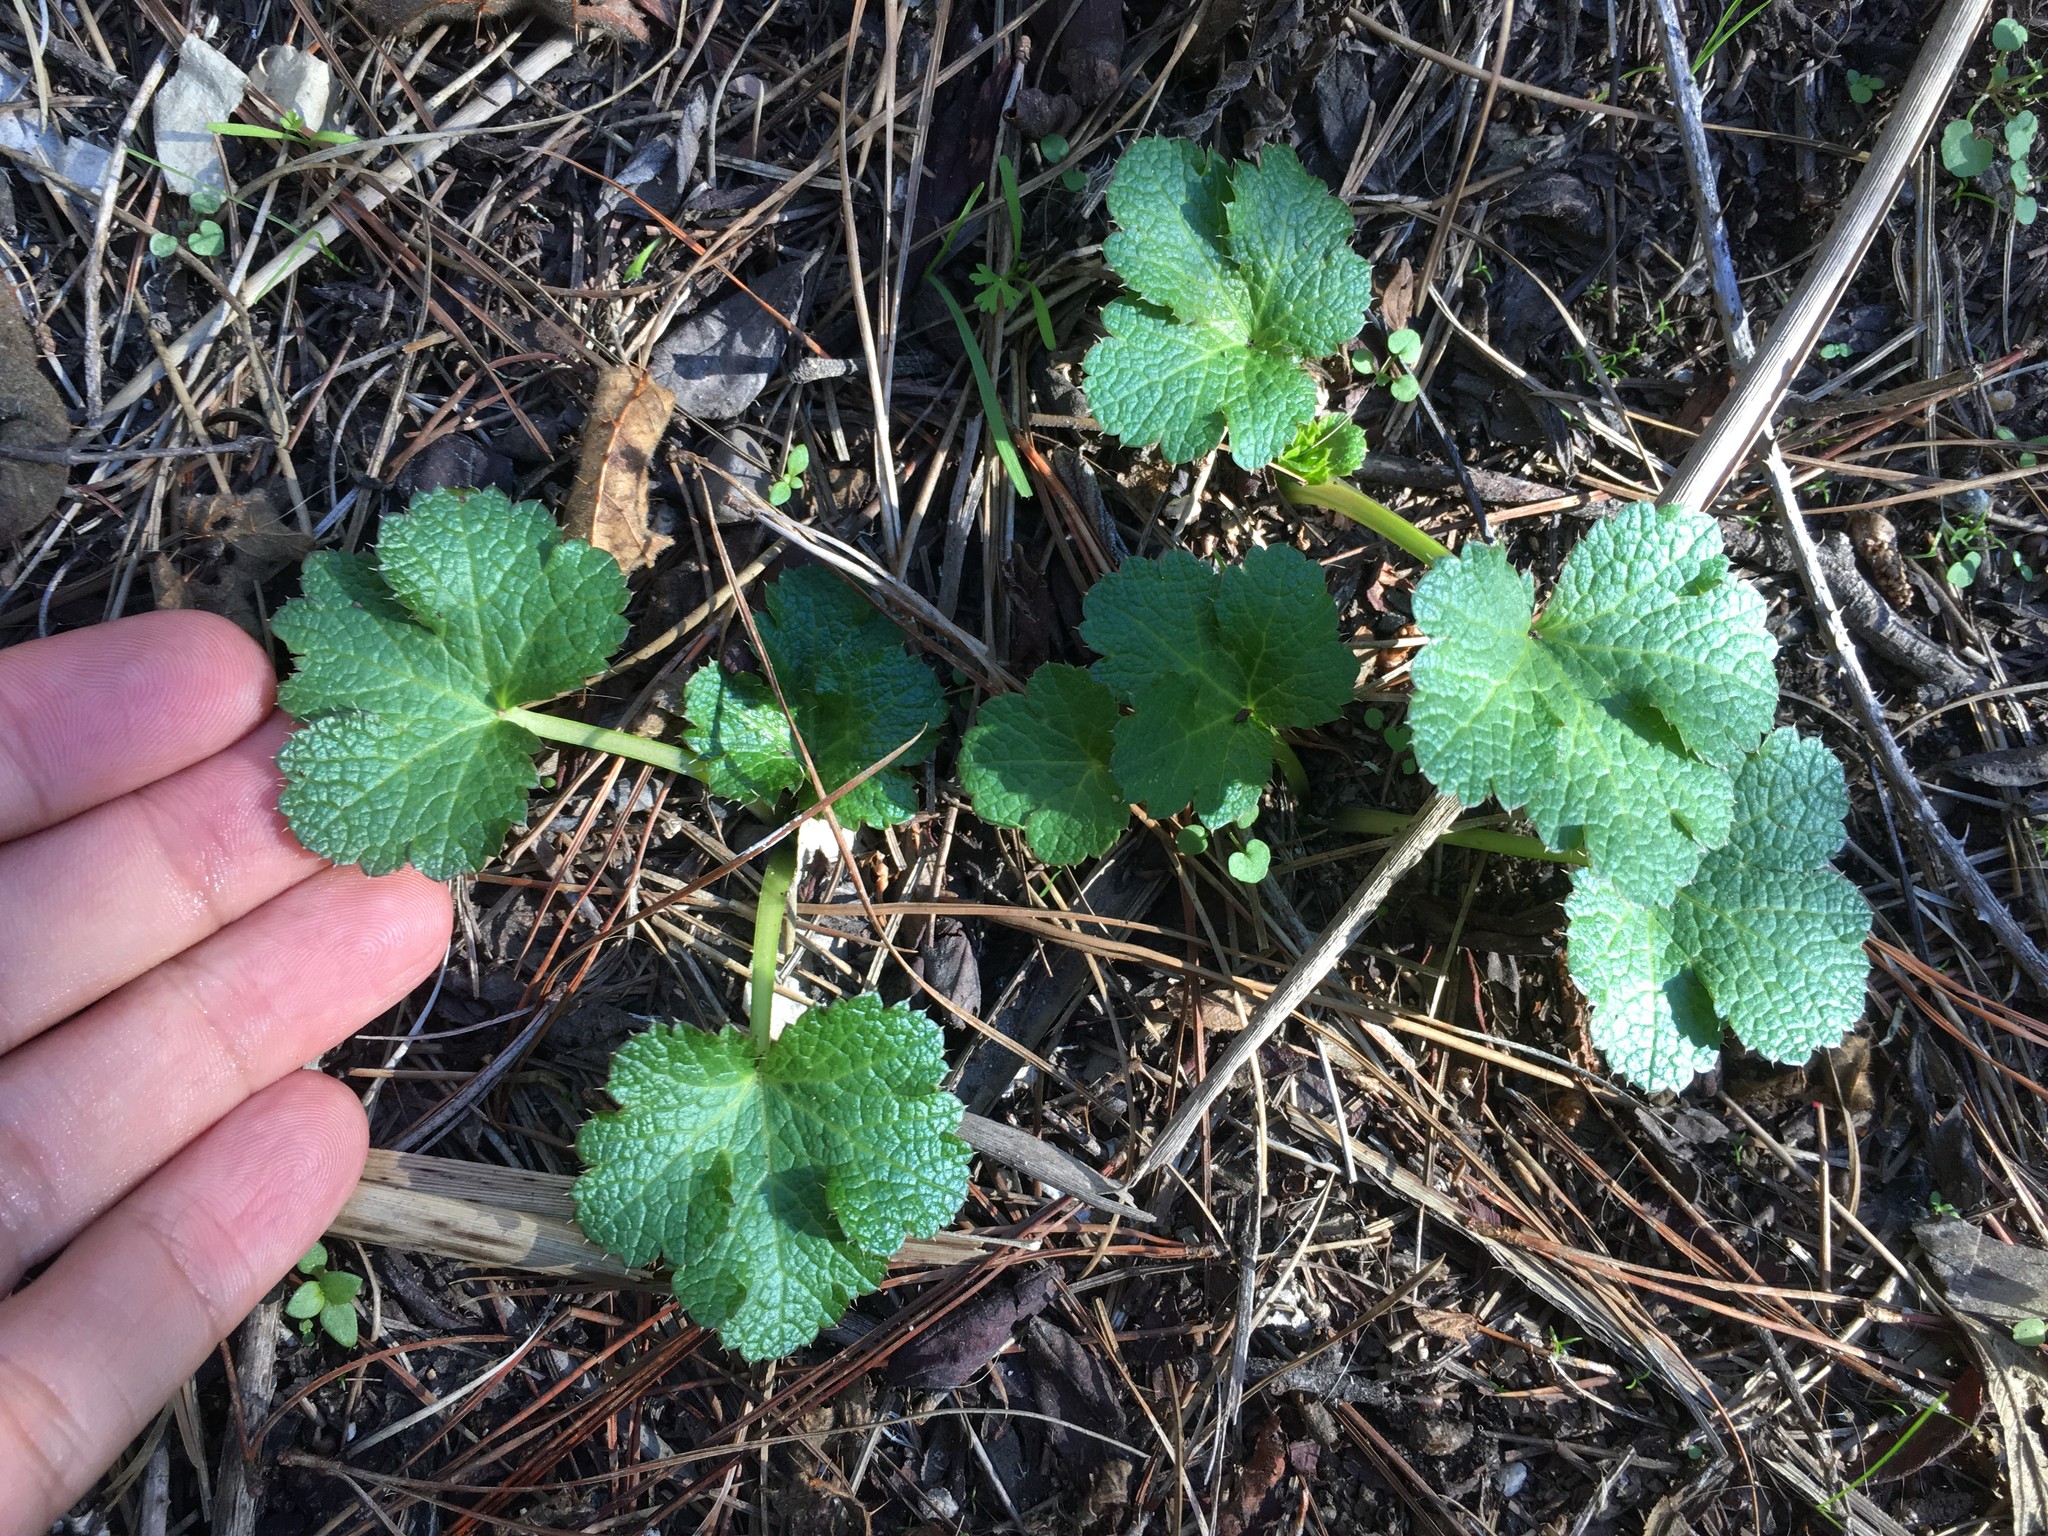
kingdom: Plantae
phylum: Tracheophyta
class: Magnoliopsida
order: Apiales
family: Apiaceae
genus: Sanicula
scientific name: Sanicula crassicaulis
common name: Western snakeroot
